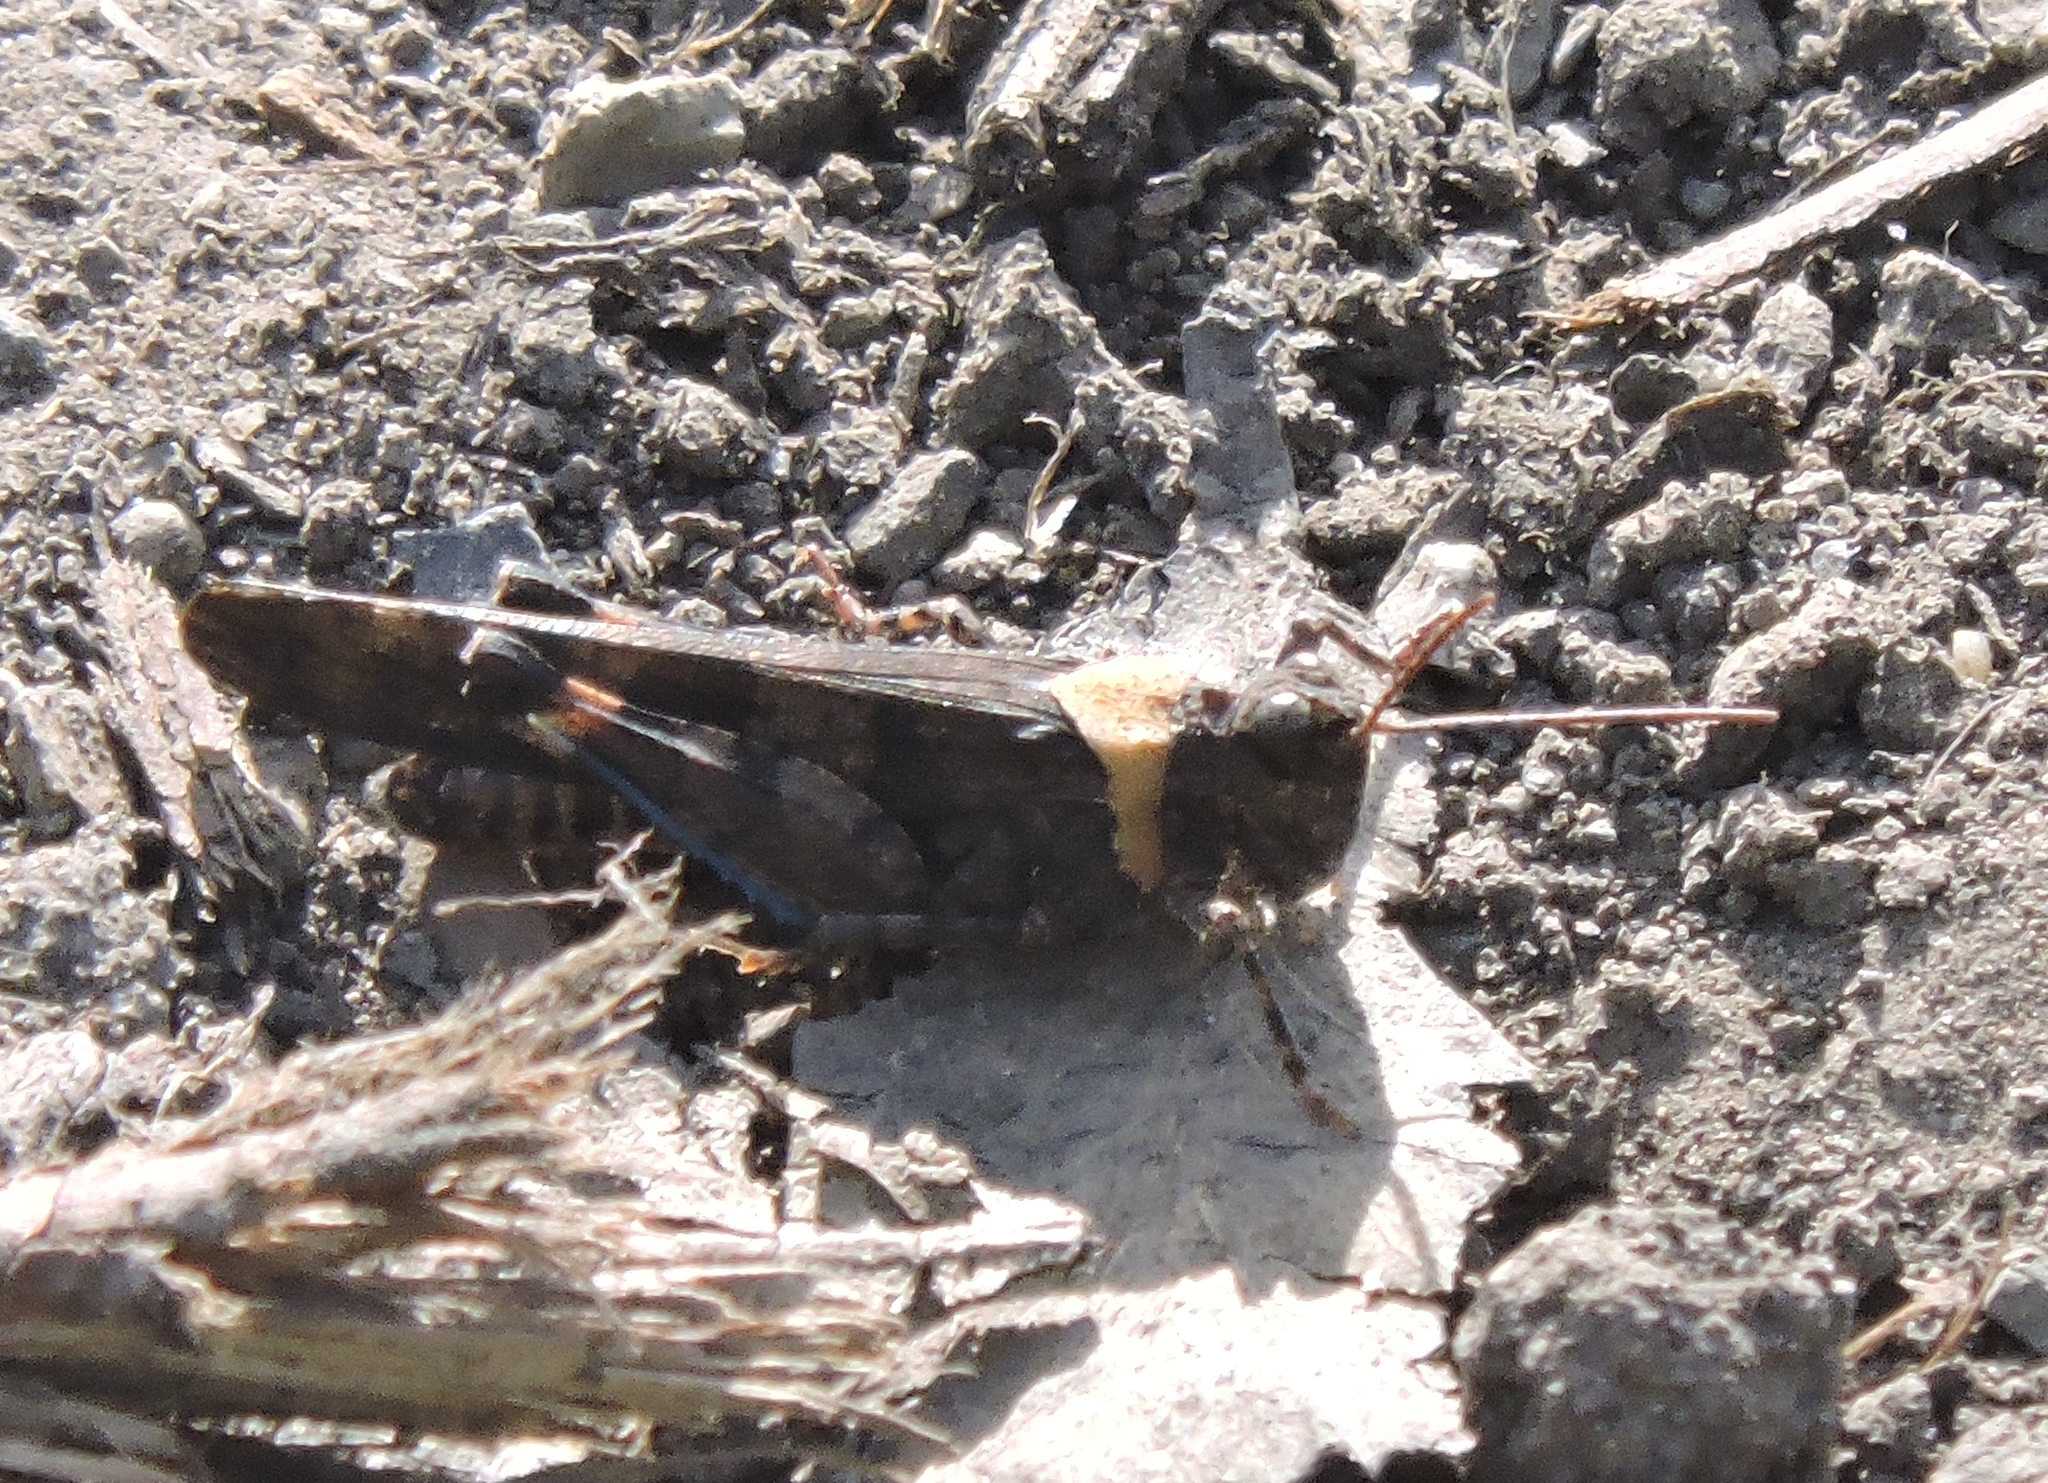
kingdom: Animalia
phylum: Arthropoda
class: Insecta
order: Orthoptera
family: Acrididae
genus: Trimerotropis
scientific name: Trimerotropis fontana
